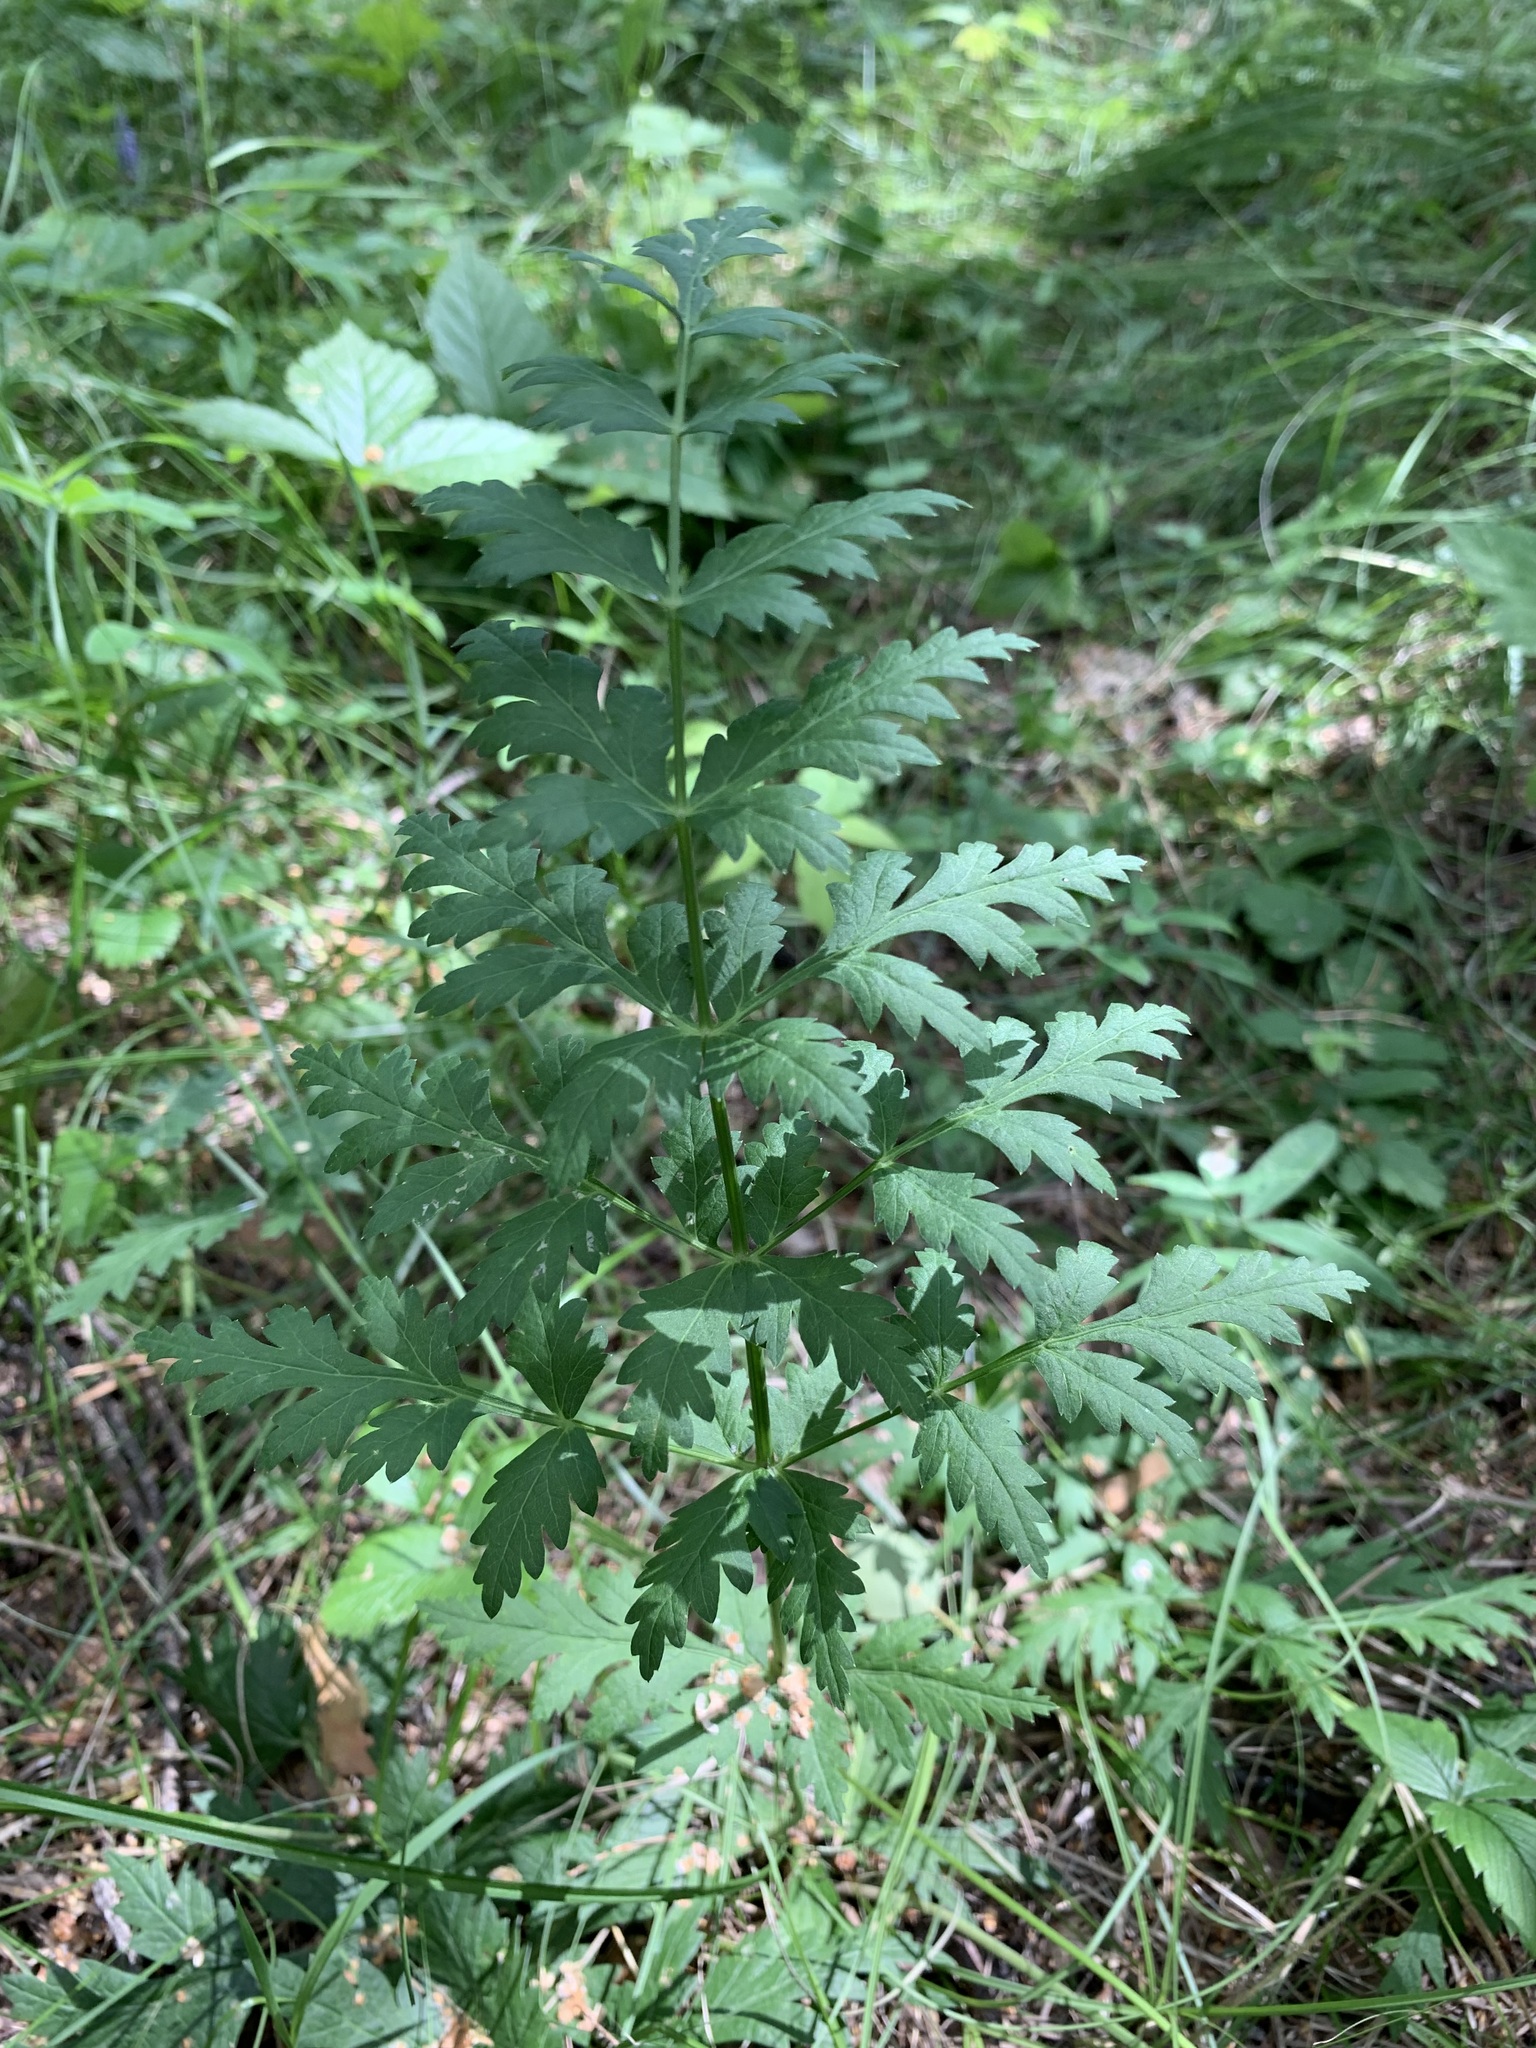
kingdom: Plantae
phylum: Tracheophyta
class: Magnoliopsida
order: Apiales
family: Apiaceae
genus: Seseli
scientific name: Seseli libanotis
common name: Mooncarrot
